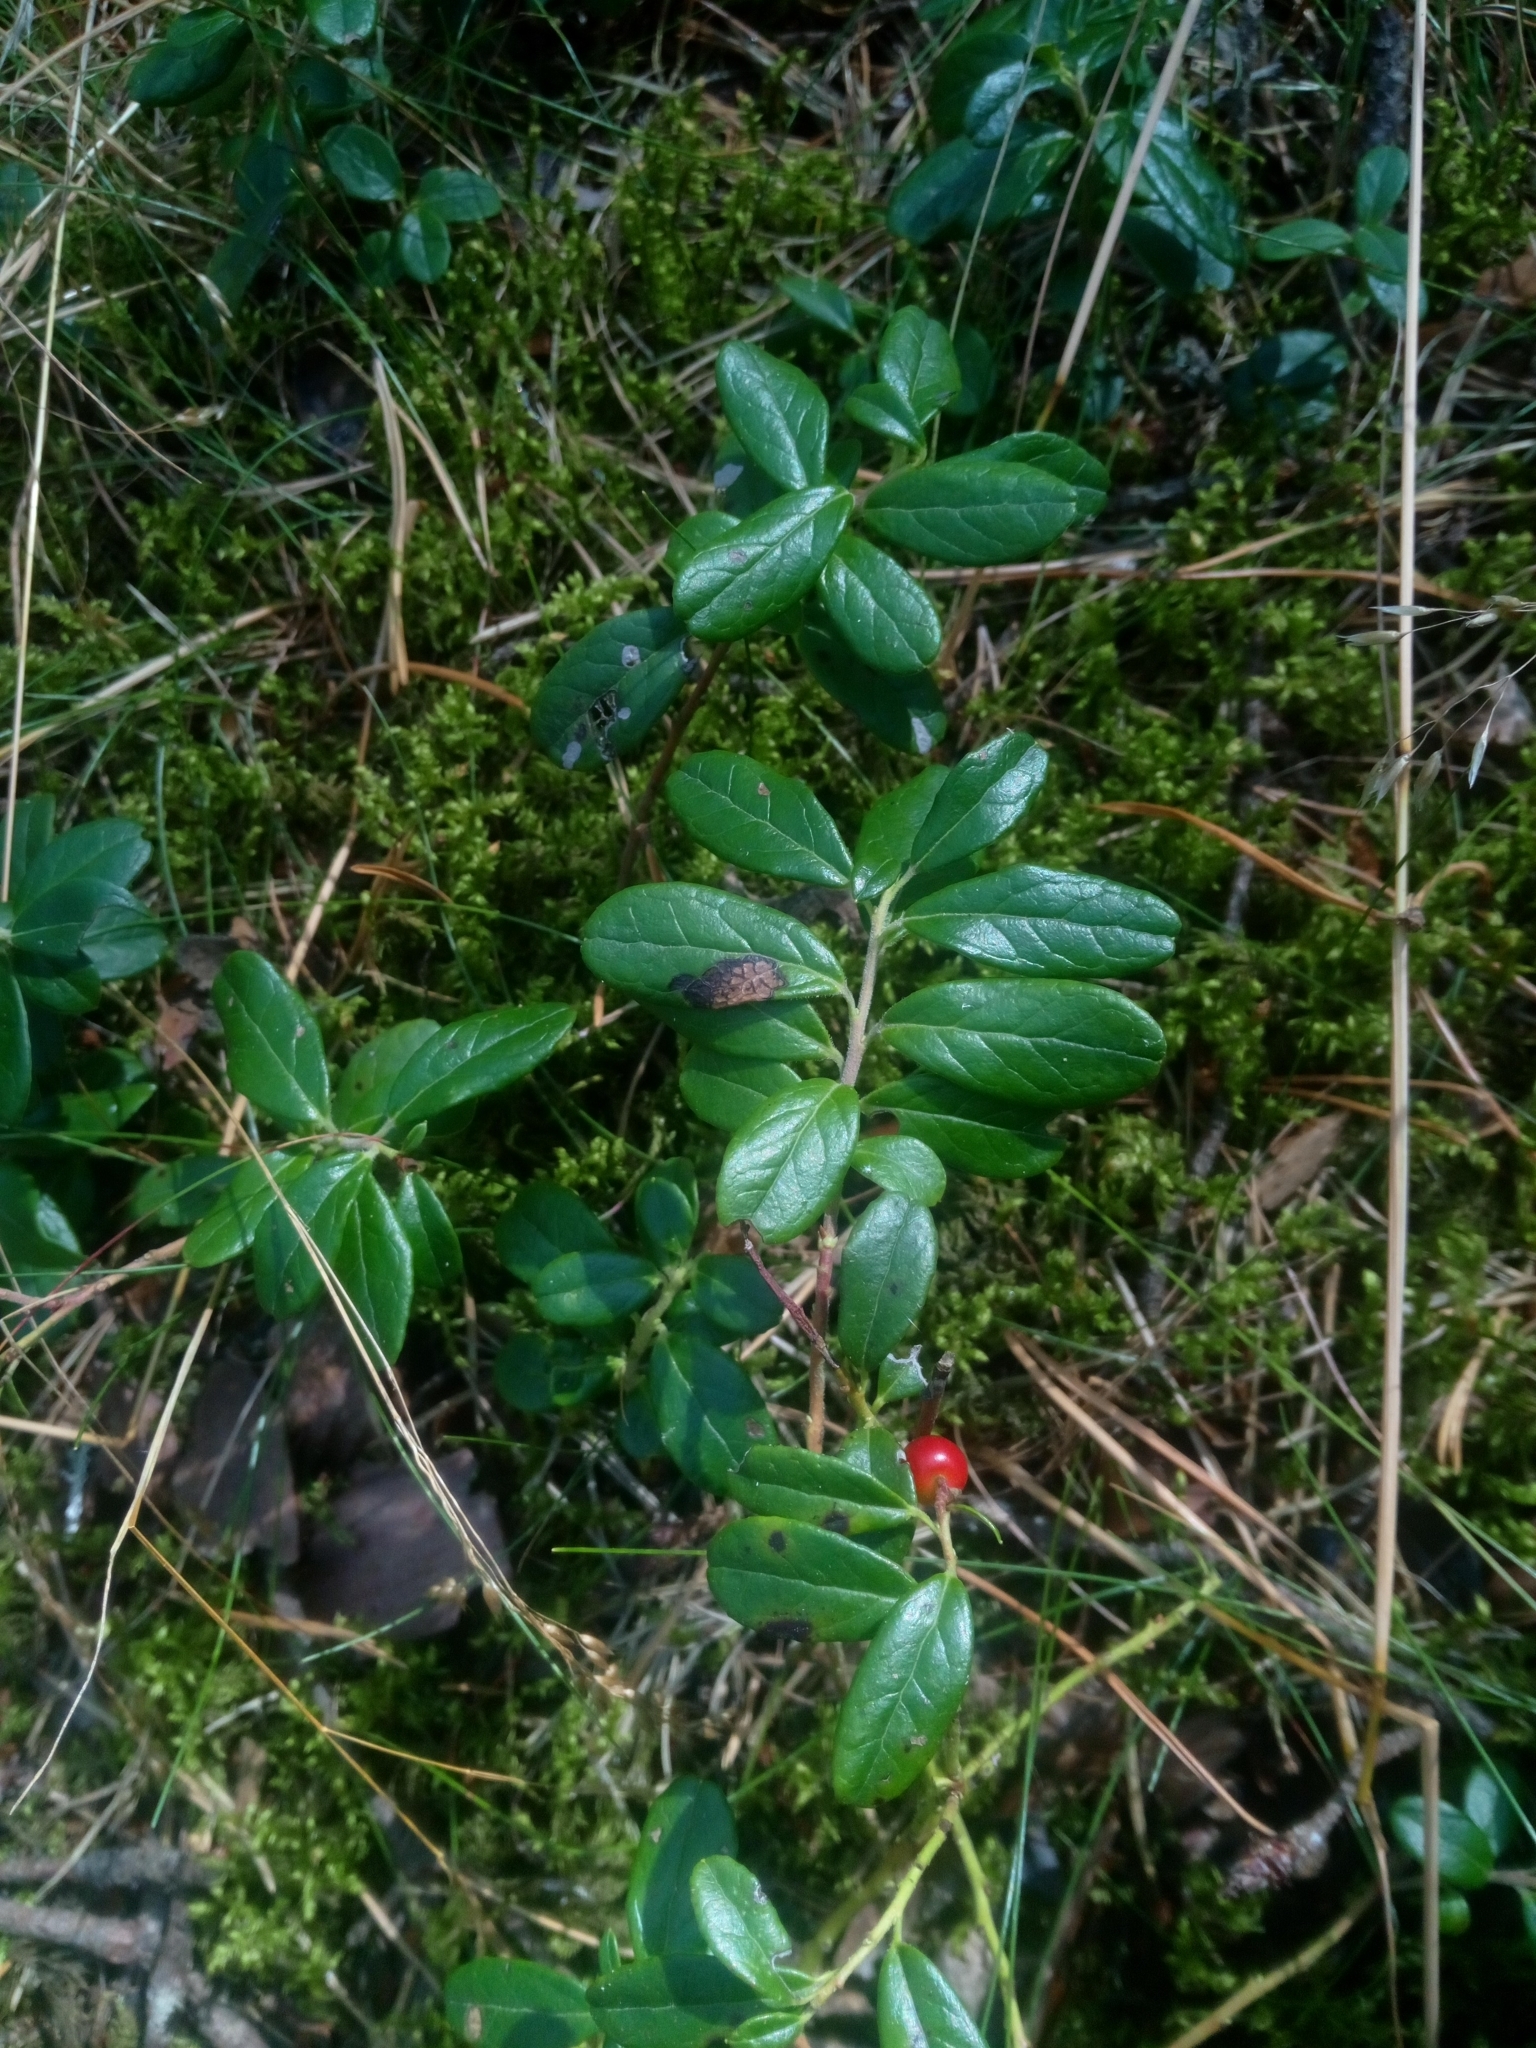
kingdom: Plantae
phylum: Tracheophyta
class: Magnoliopsida
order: Ericales
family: Ericaceae
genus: Vaccinium
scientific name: Vaccinium vitis-idaea
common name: Cowberry
